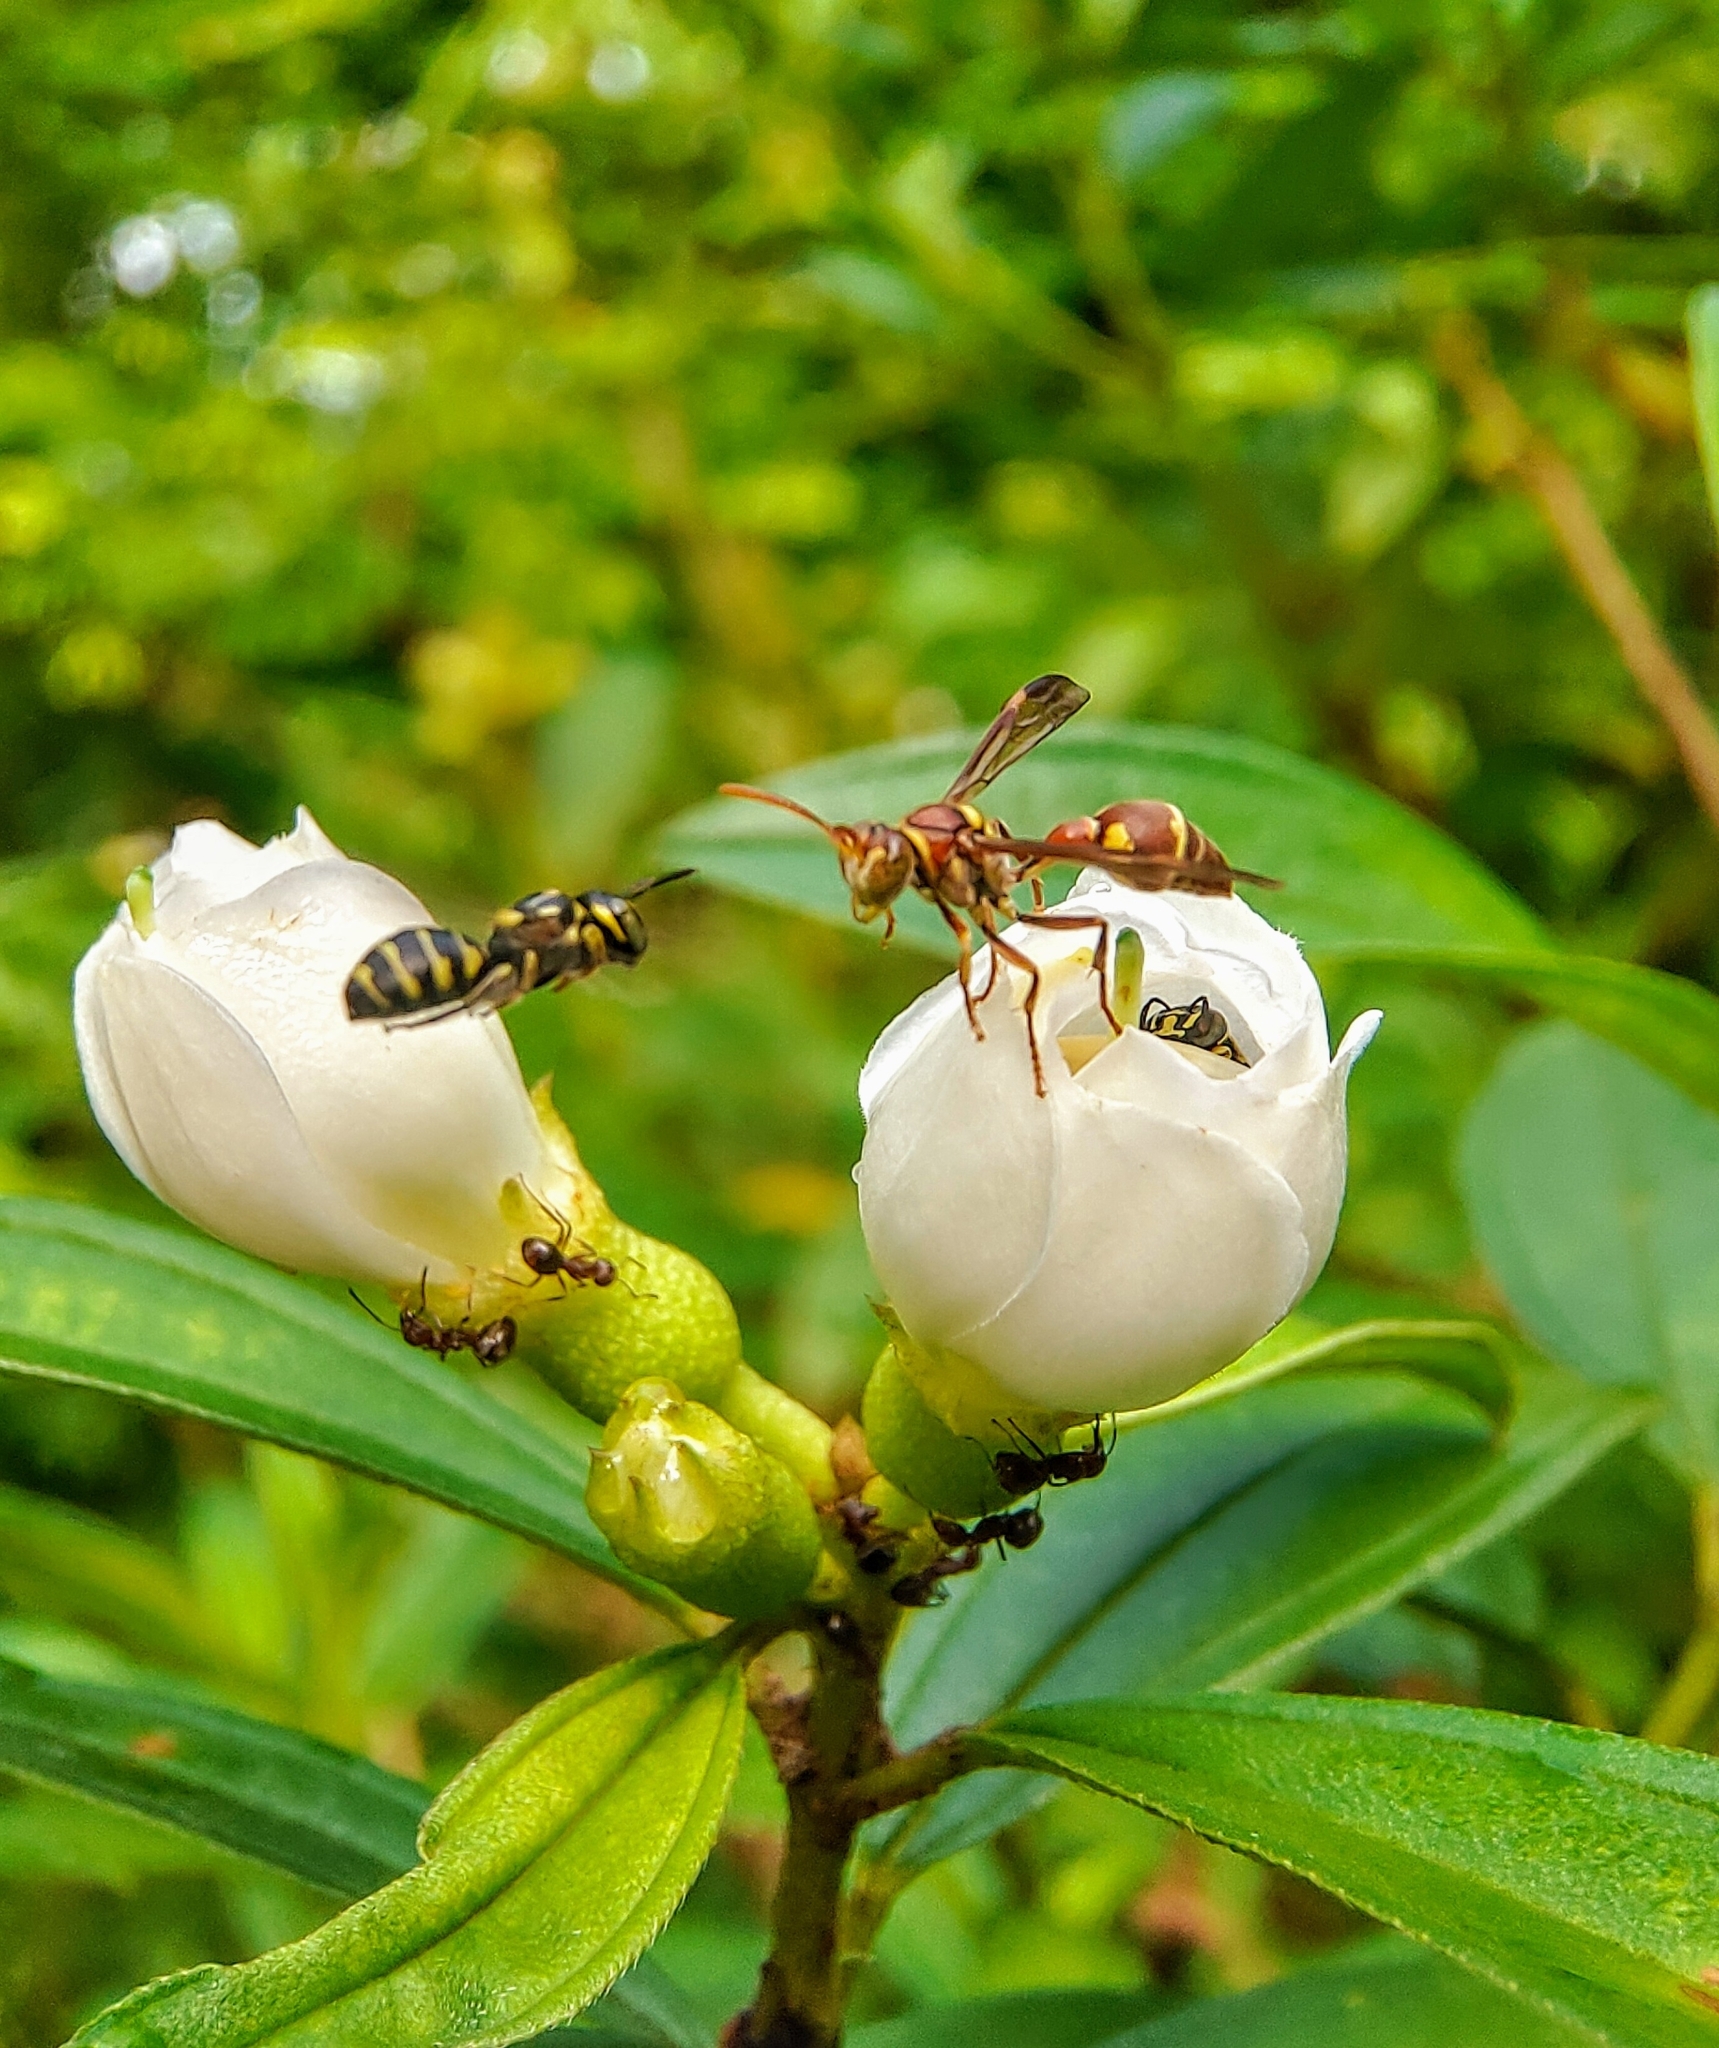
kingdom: Animalia
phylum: Arthropoda
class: Insecta
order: Hymenoptera
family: Vespidae
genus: Ropalidia
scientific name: Ropalidia stigma
